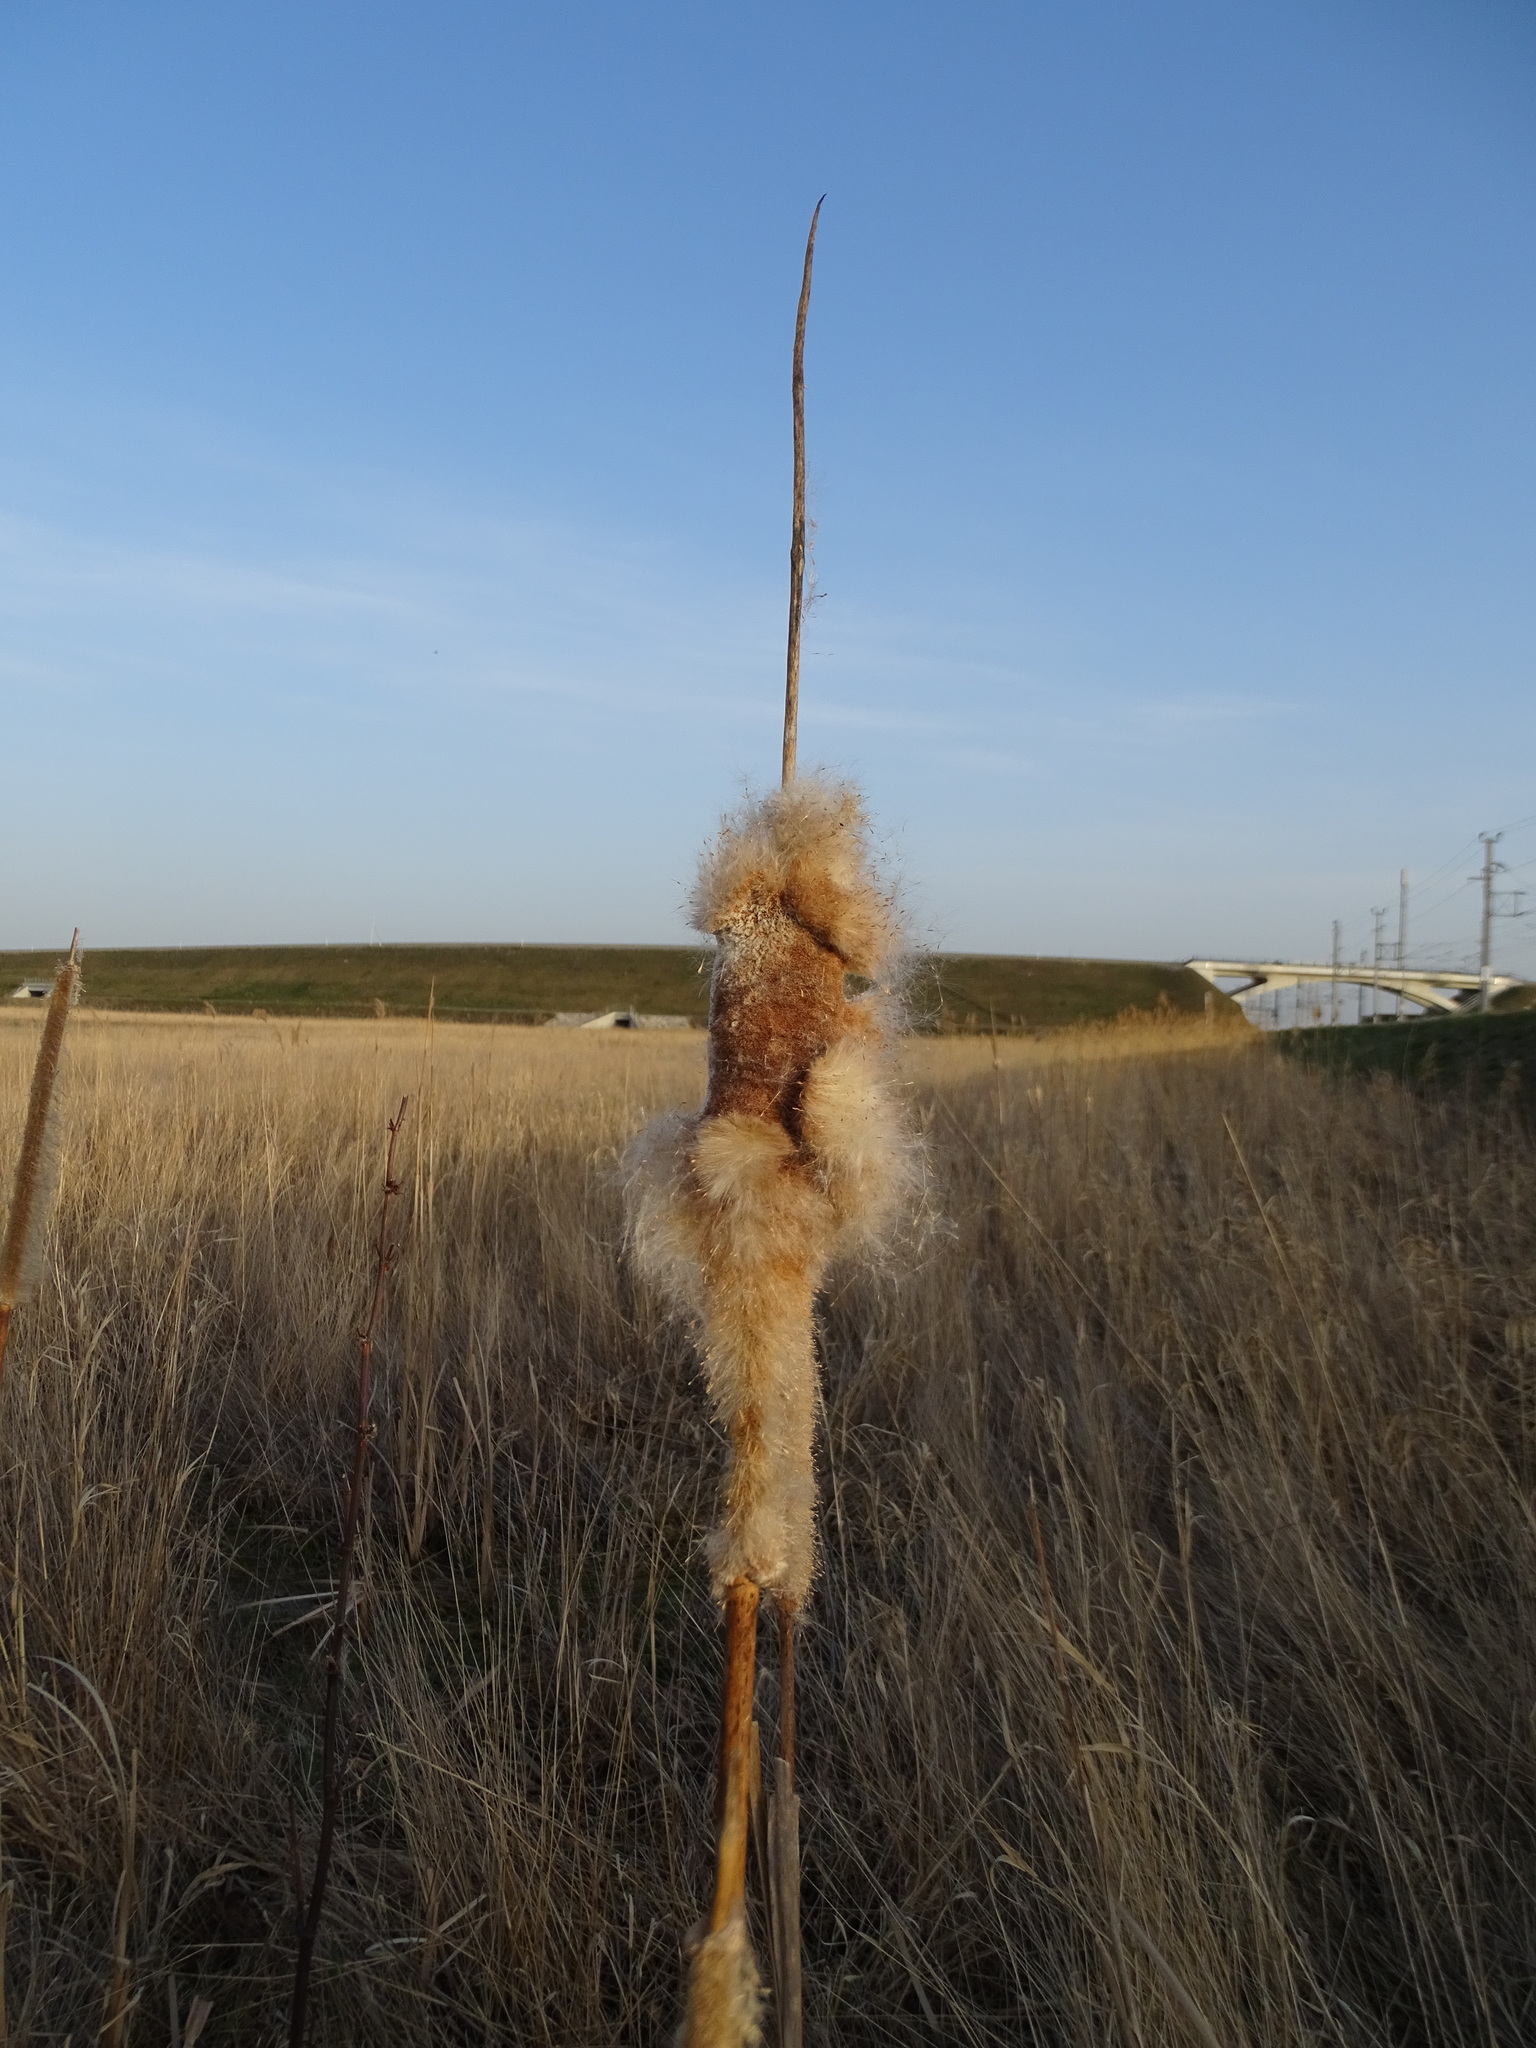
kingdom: Plantae
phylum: Tracheophyta
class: Liliopsida
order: Poales
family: Typhaceae
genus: Typha
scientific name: Typha latifolia
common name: Broadleaf cattail
